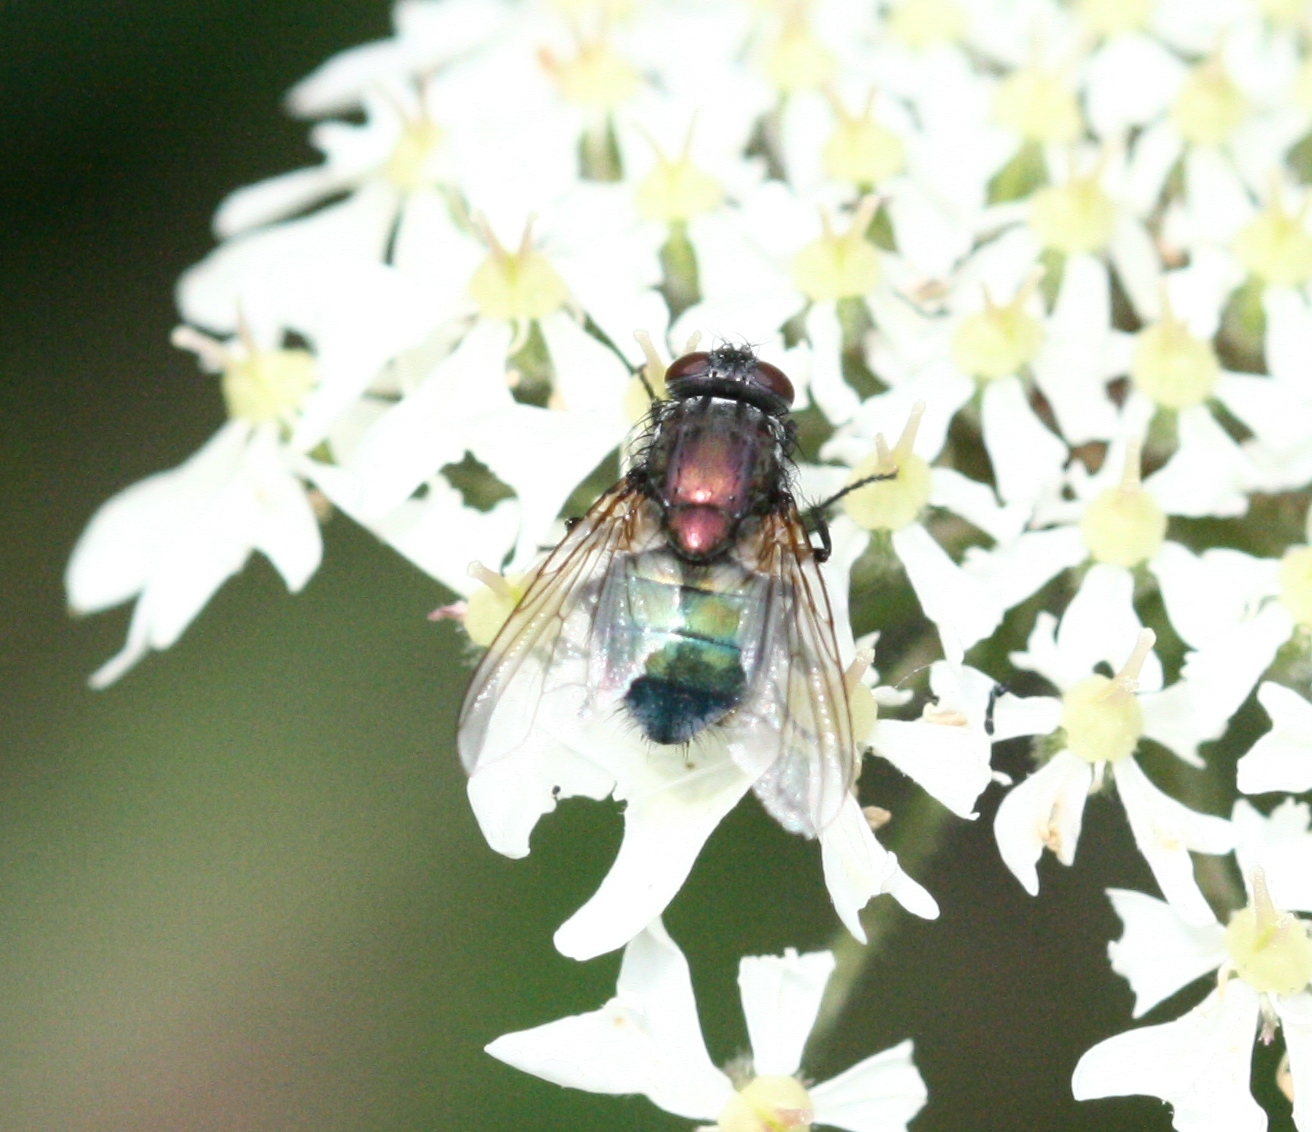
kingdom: Animalia
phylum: Arthropoda
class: Insecta
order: Diptera
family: Muscidae
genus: Dasyphora
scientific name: Dasyphora cyanella
